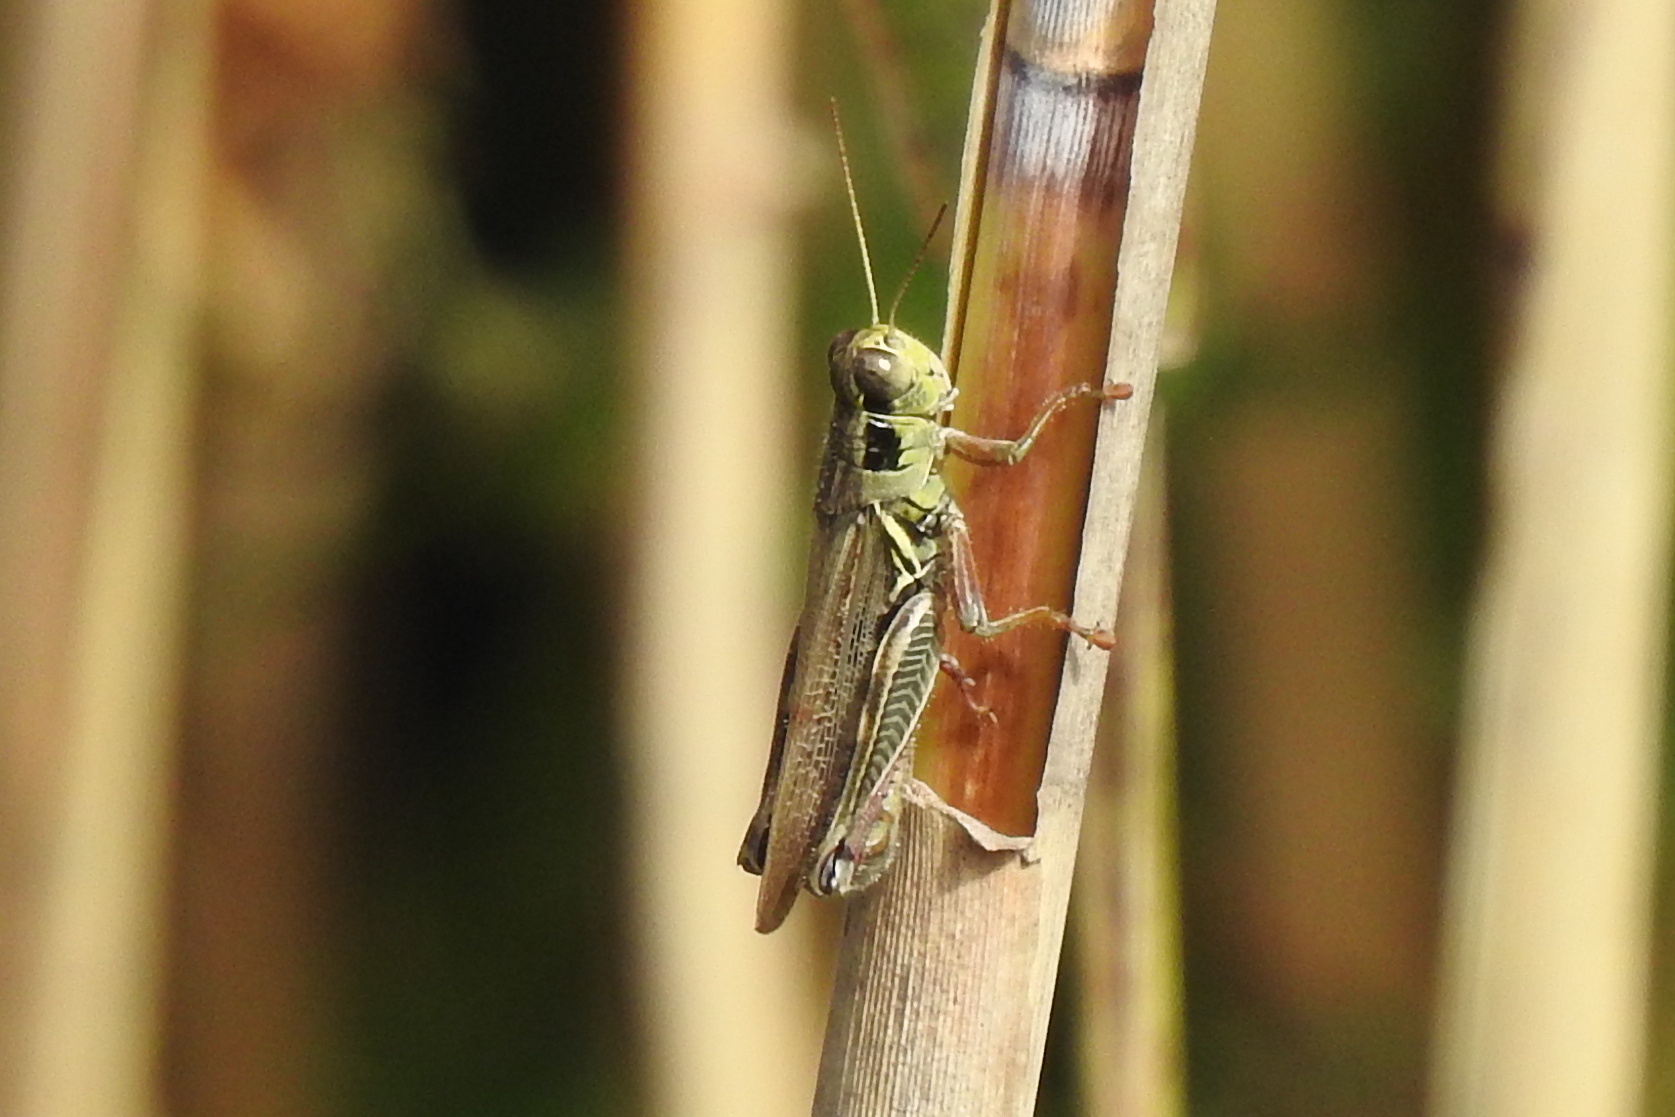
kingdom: Animalia
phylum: Arthropoda
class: Insecta
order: Orthoptera
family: Acrididae
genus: Melanoplus
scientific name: Melanoplus femurrubrum
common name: Red-legged grasshopper
